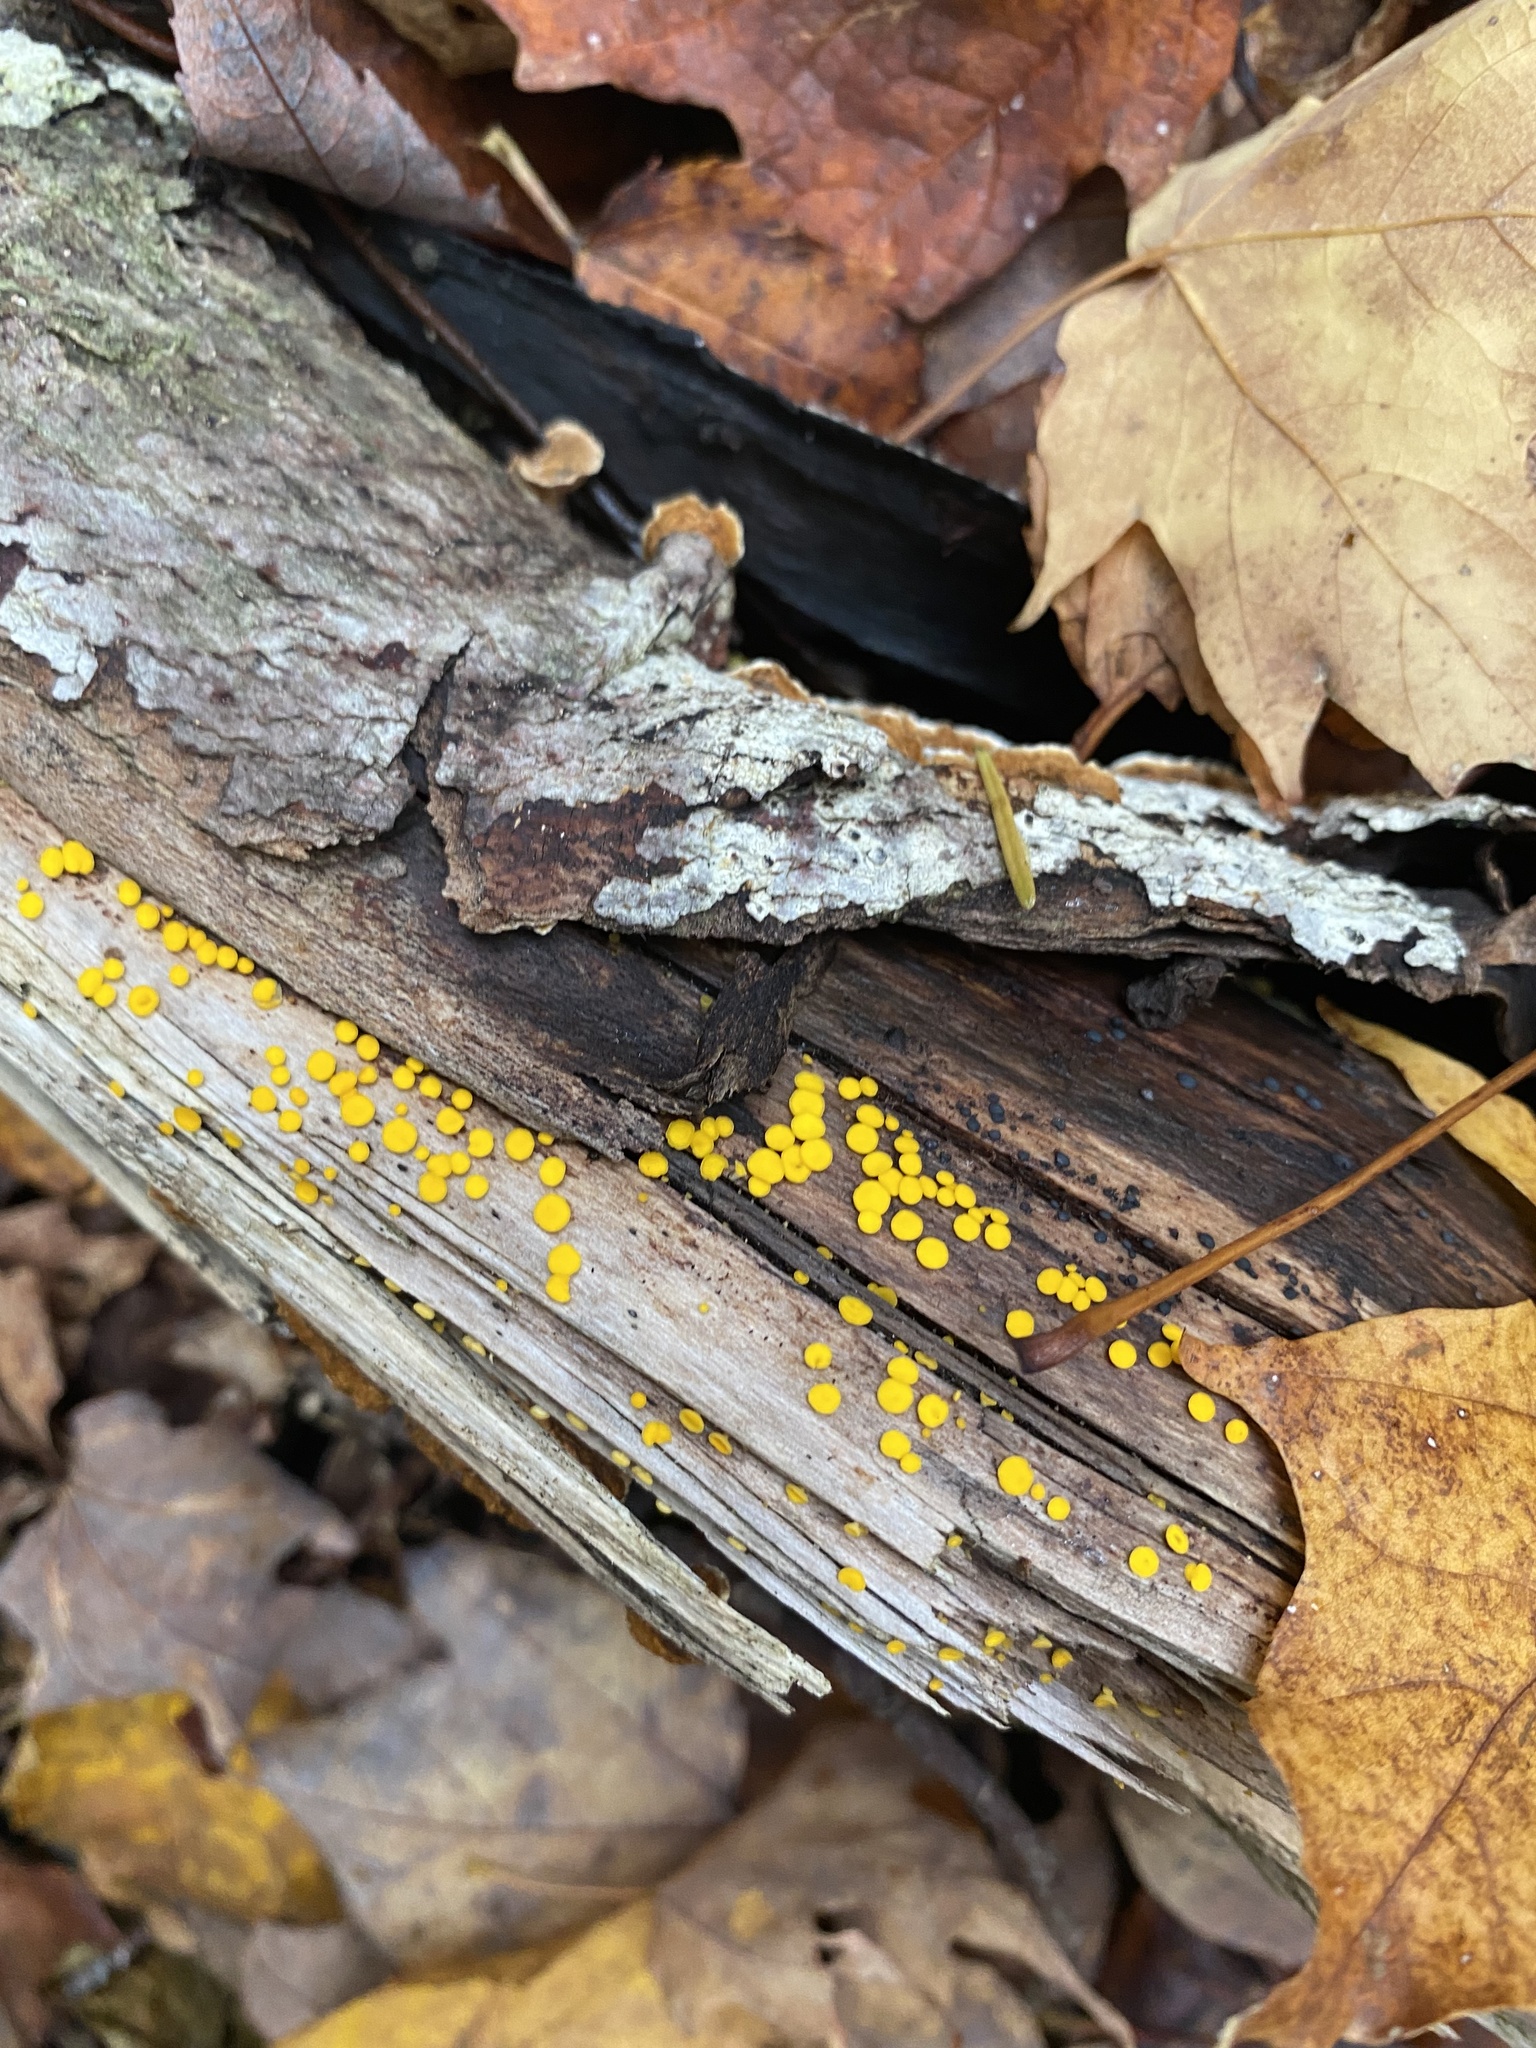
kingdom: Fungi
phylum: Ascomycota
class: Leotiomycetes
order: Helotiales
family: Pezizellaceae
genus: Calycina
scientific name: Calycina citrina
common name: Yellow fairy cups
